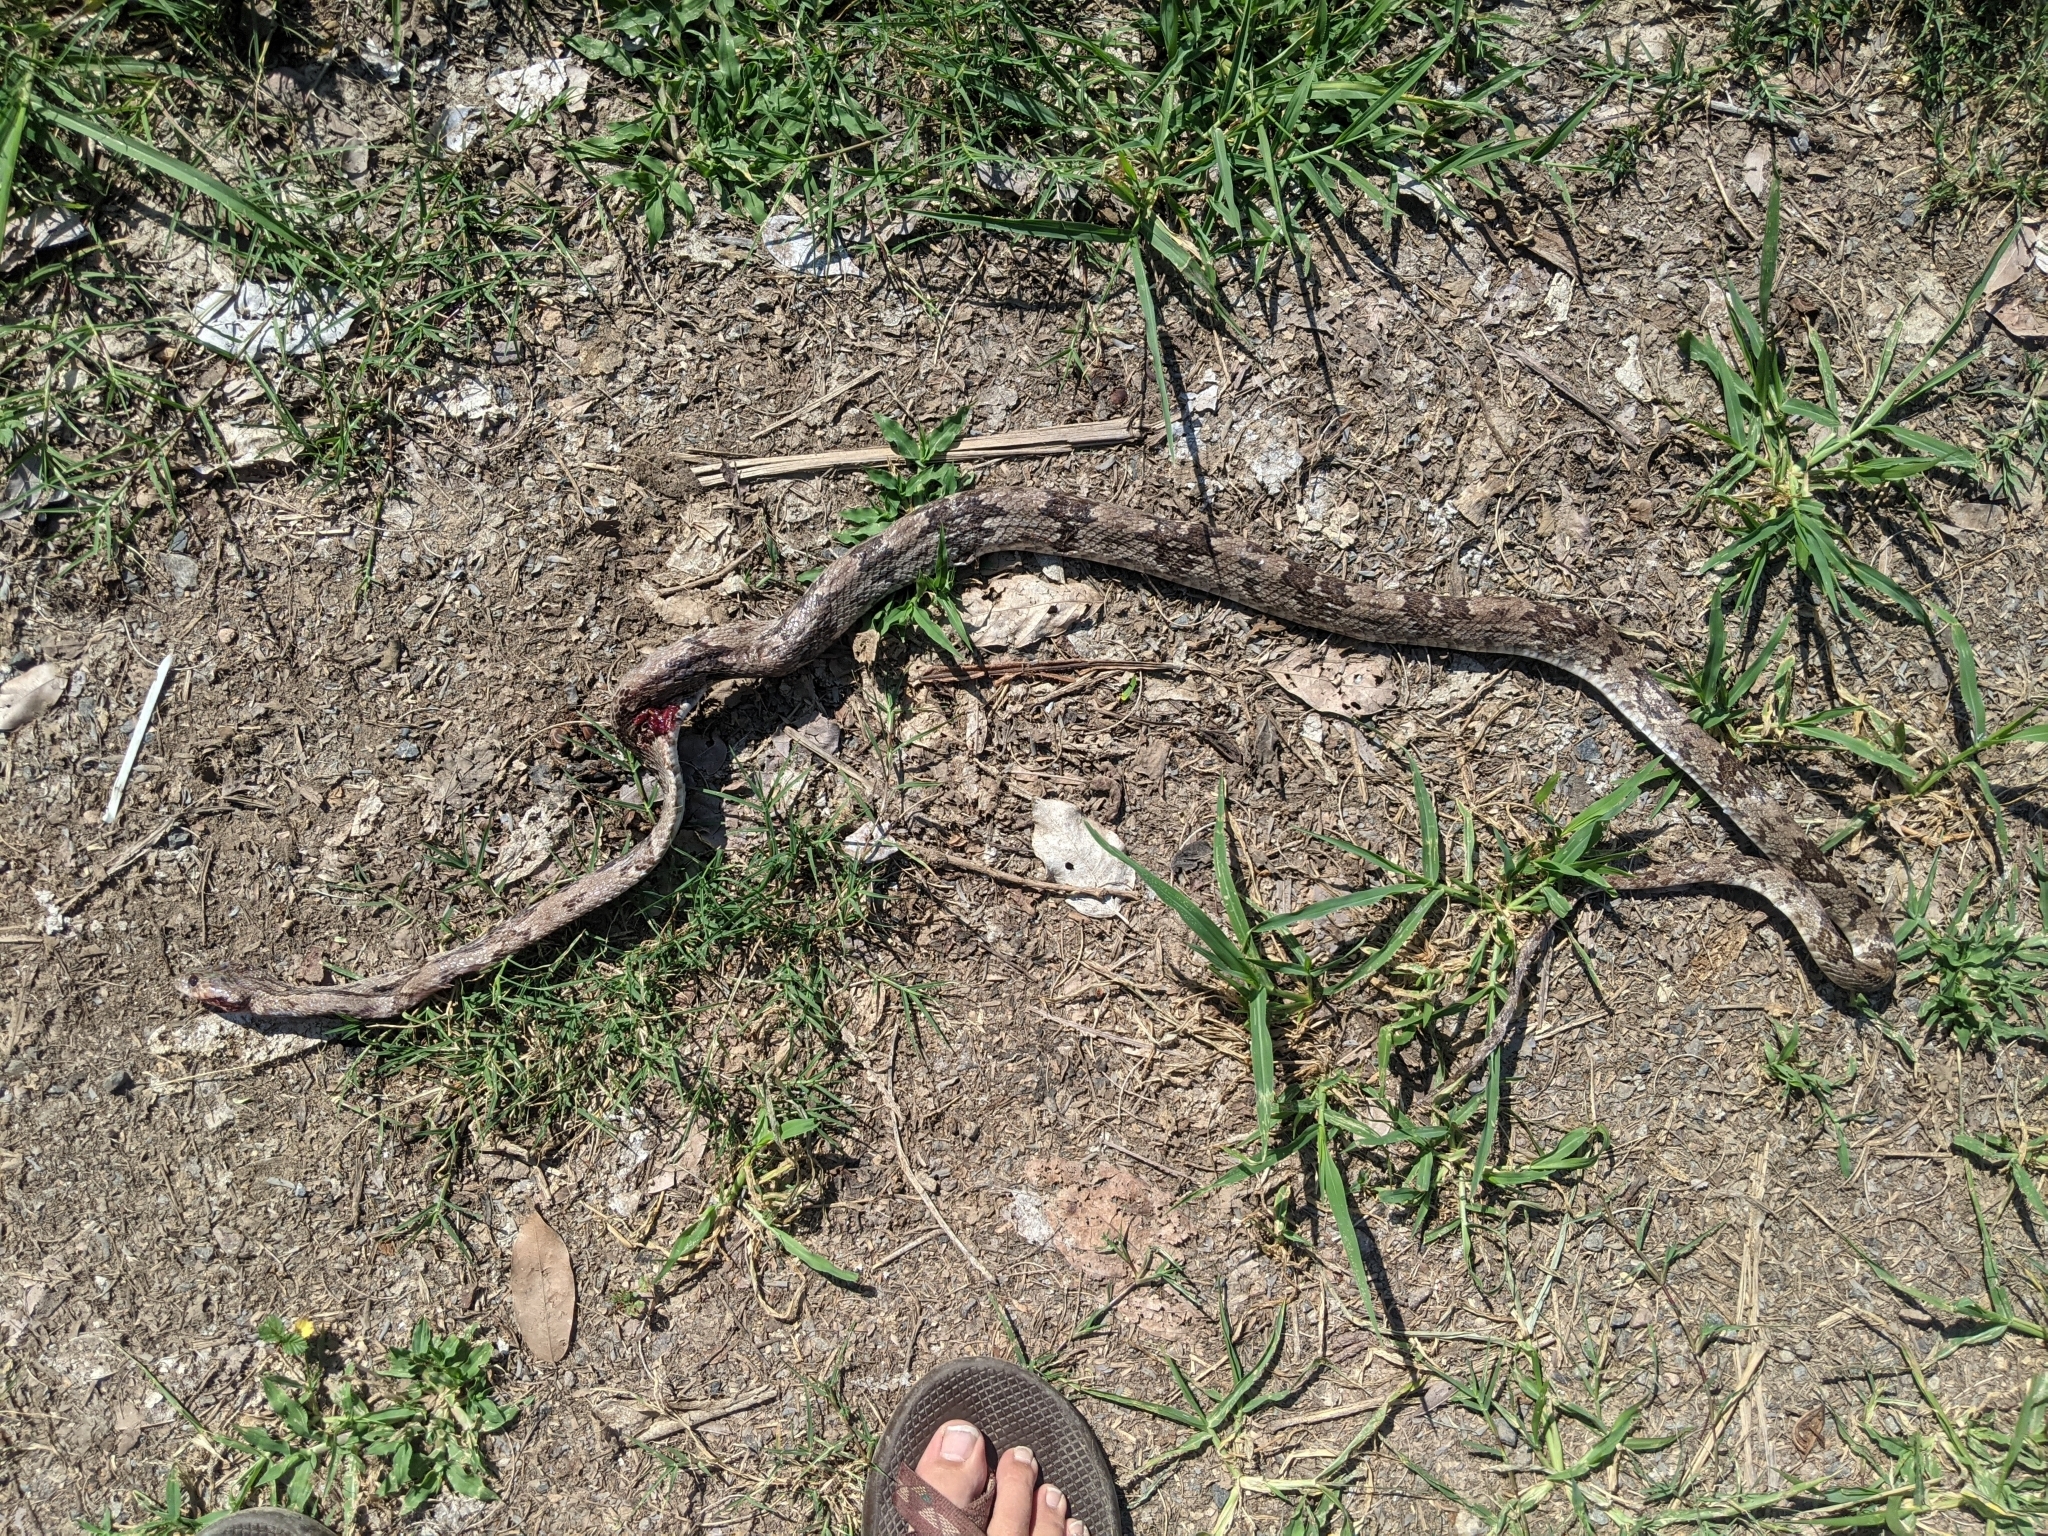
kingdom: Animalia
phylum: Chordata
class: Squamata
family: Colubridae
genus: Trimorphodon
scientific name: Trimorphodon biscutatus
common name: Costal lyre snake
